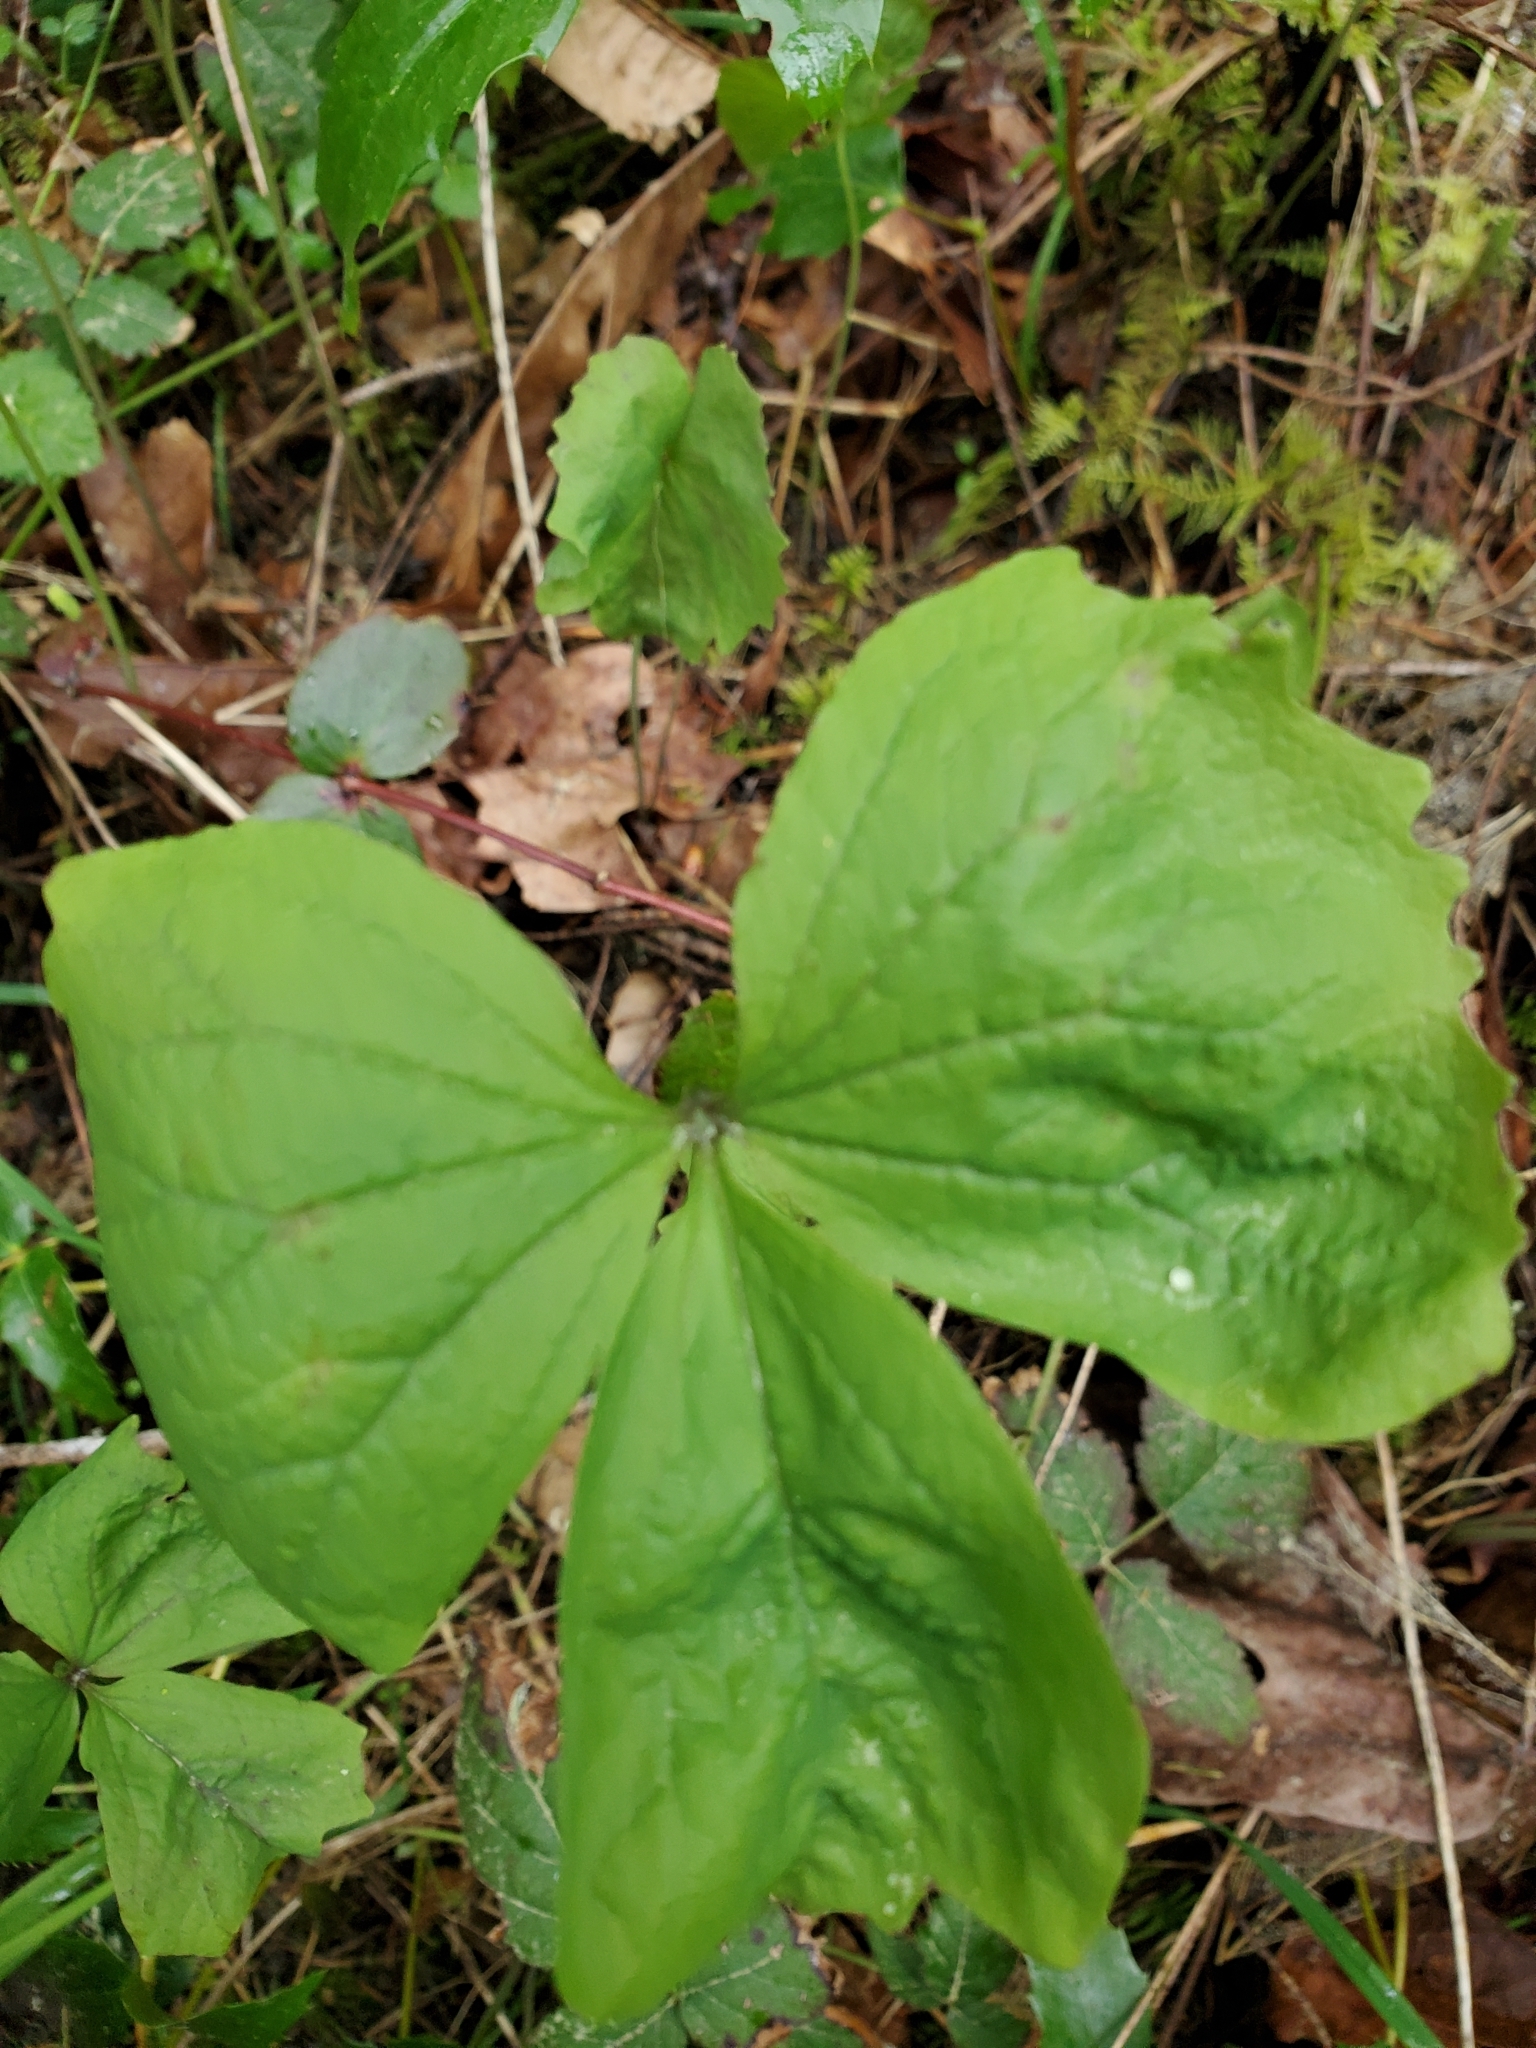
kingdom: Plantae
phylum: Tracheophyta
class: Magnoliopsida
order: Ranunculales
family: Berberidaceae
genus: Achlys
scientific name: Achlys triphylla
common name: Vanilla-leaf
